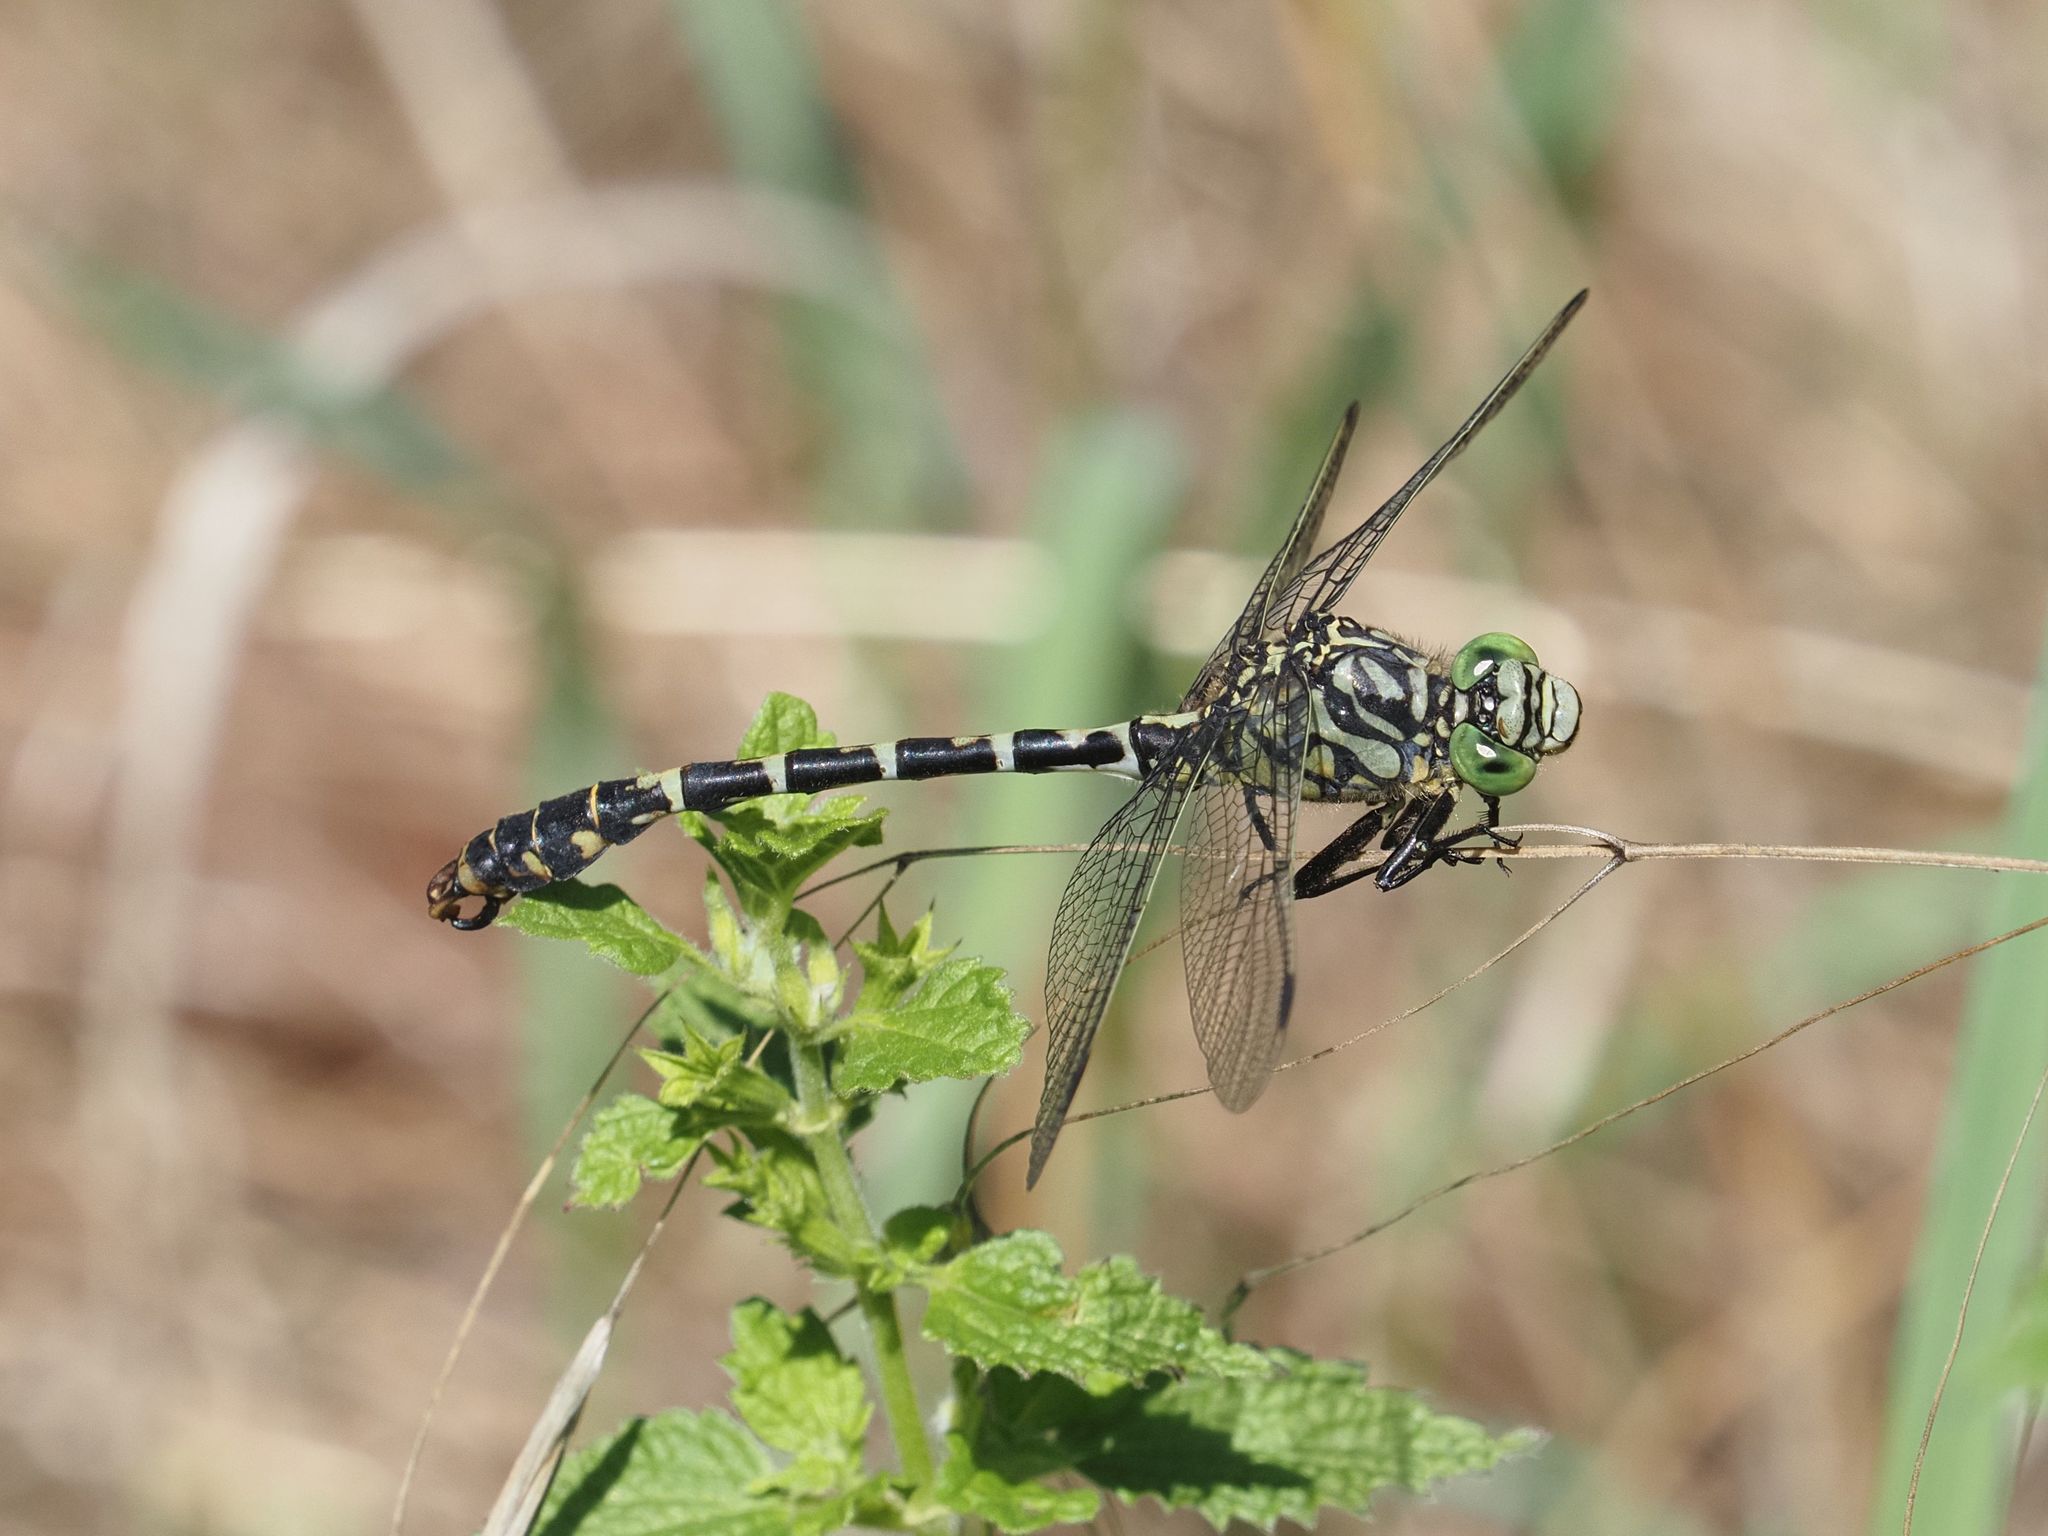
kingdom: Animalia
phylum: Arthropoda
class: Insecta
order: Odonata
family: Gomphidae
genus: Onychogomphus
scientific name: Onychogomphus forcipatus
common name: Small pincertail
